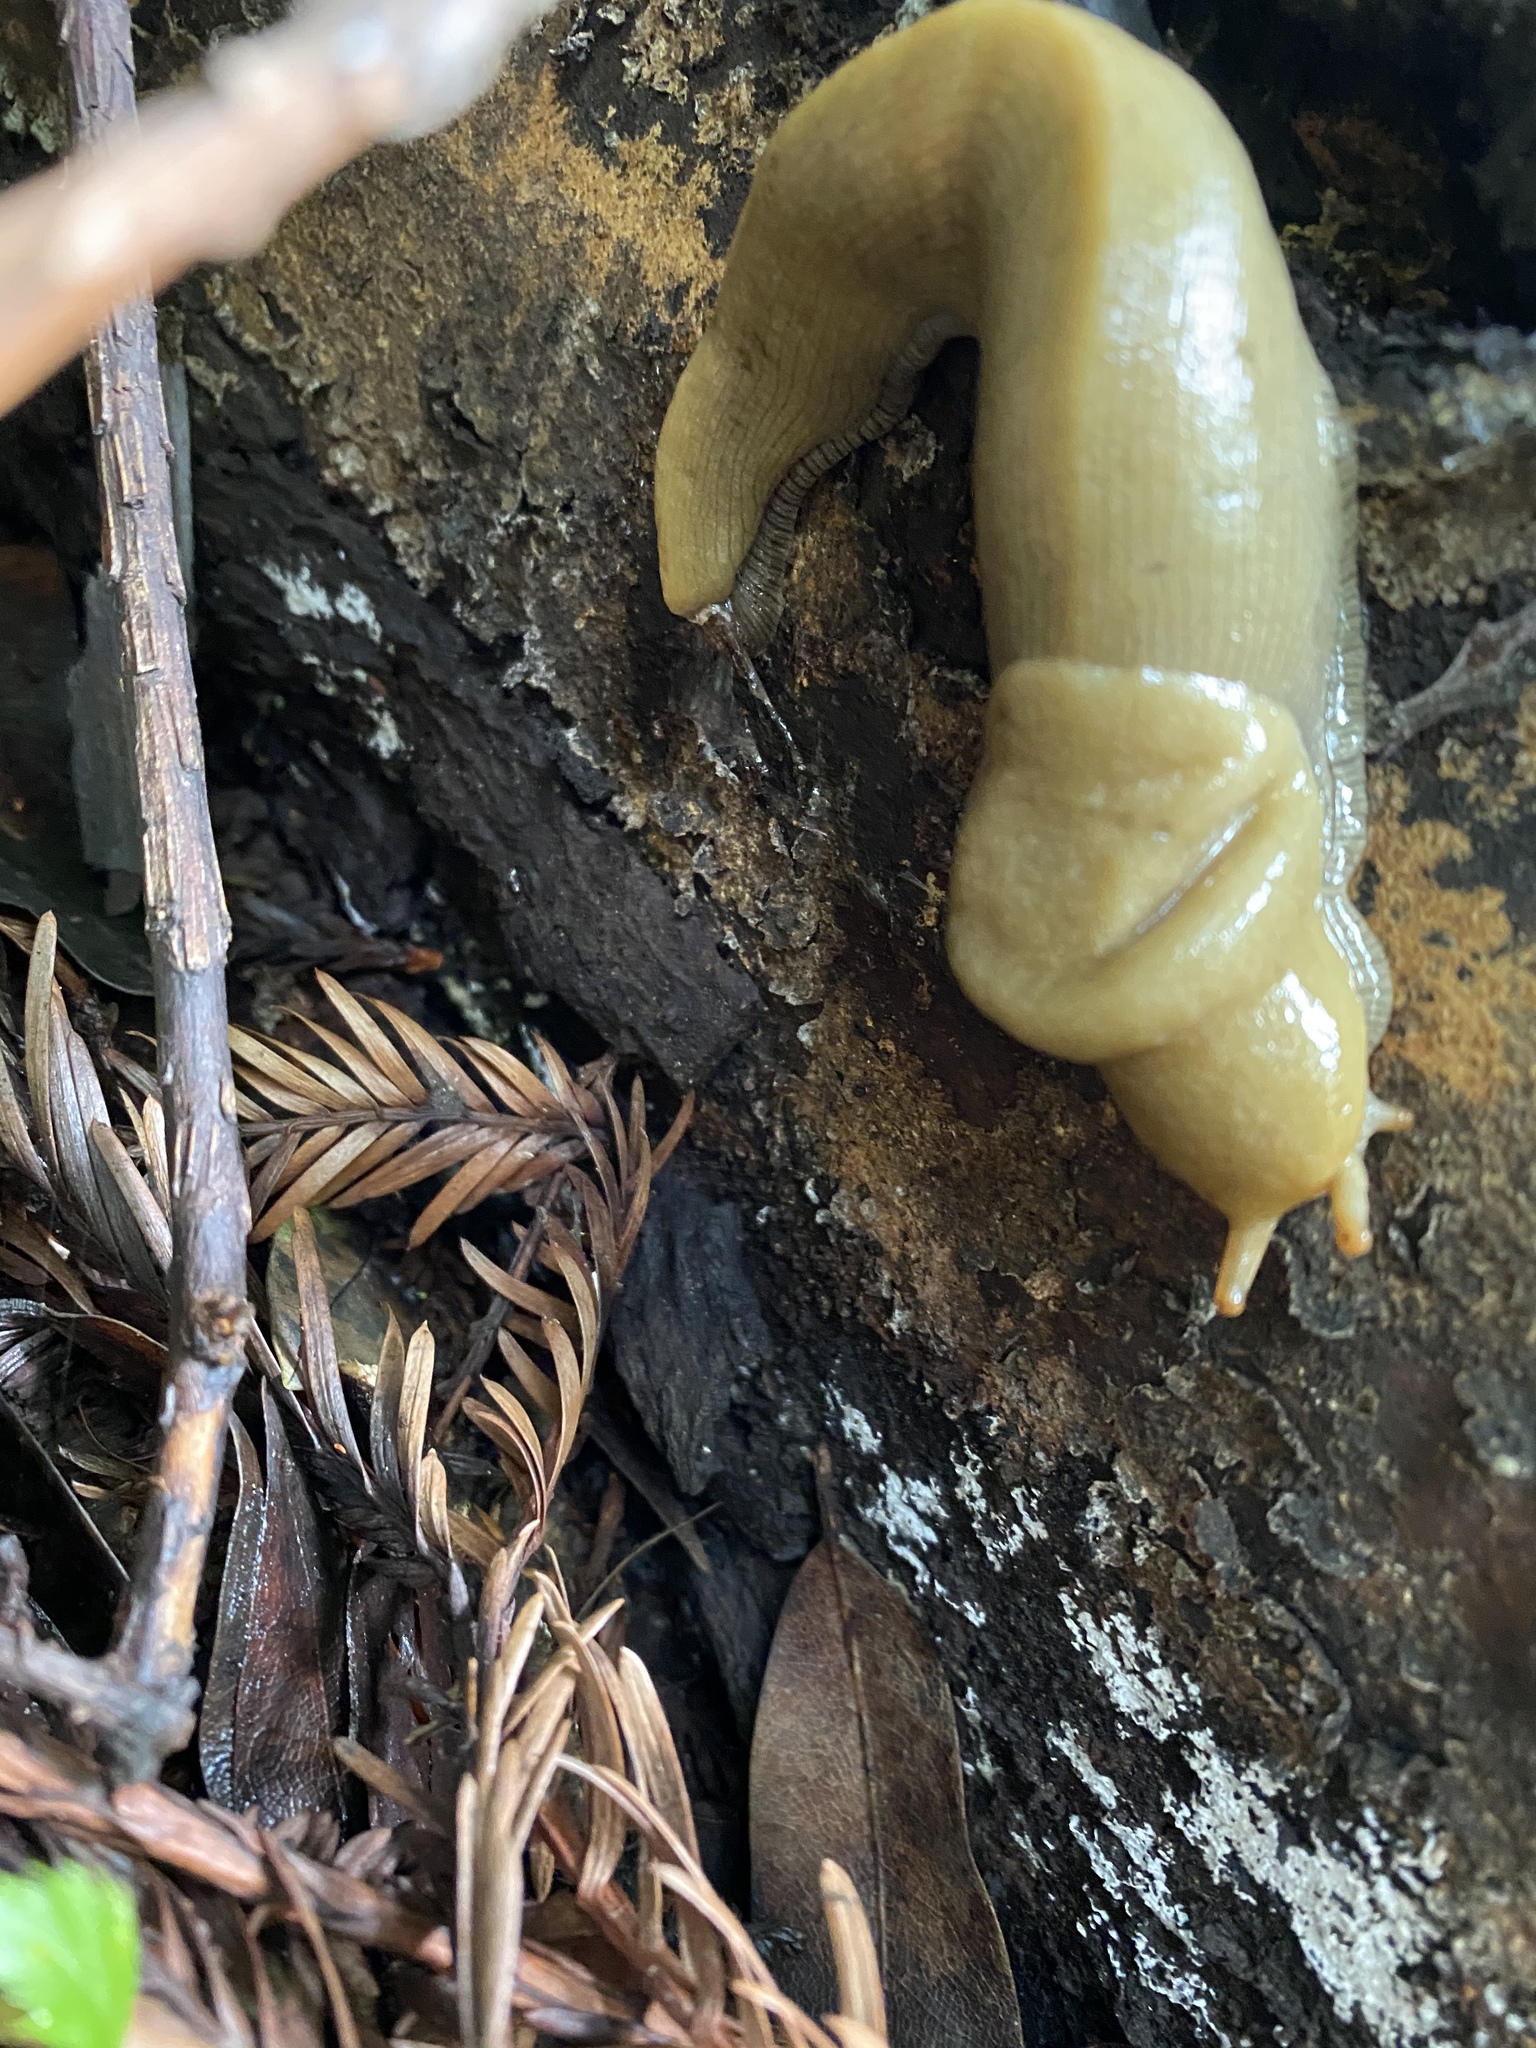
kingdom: Animalia
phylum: Mollusca
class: Gastropoda
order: Stylommatophora
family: Ariolimacidae
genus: Ariolimax
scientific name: Ariolimax buttoni
